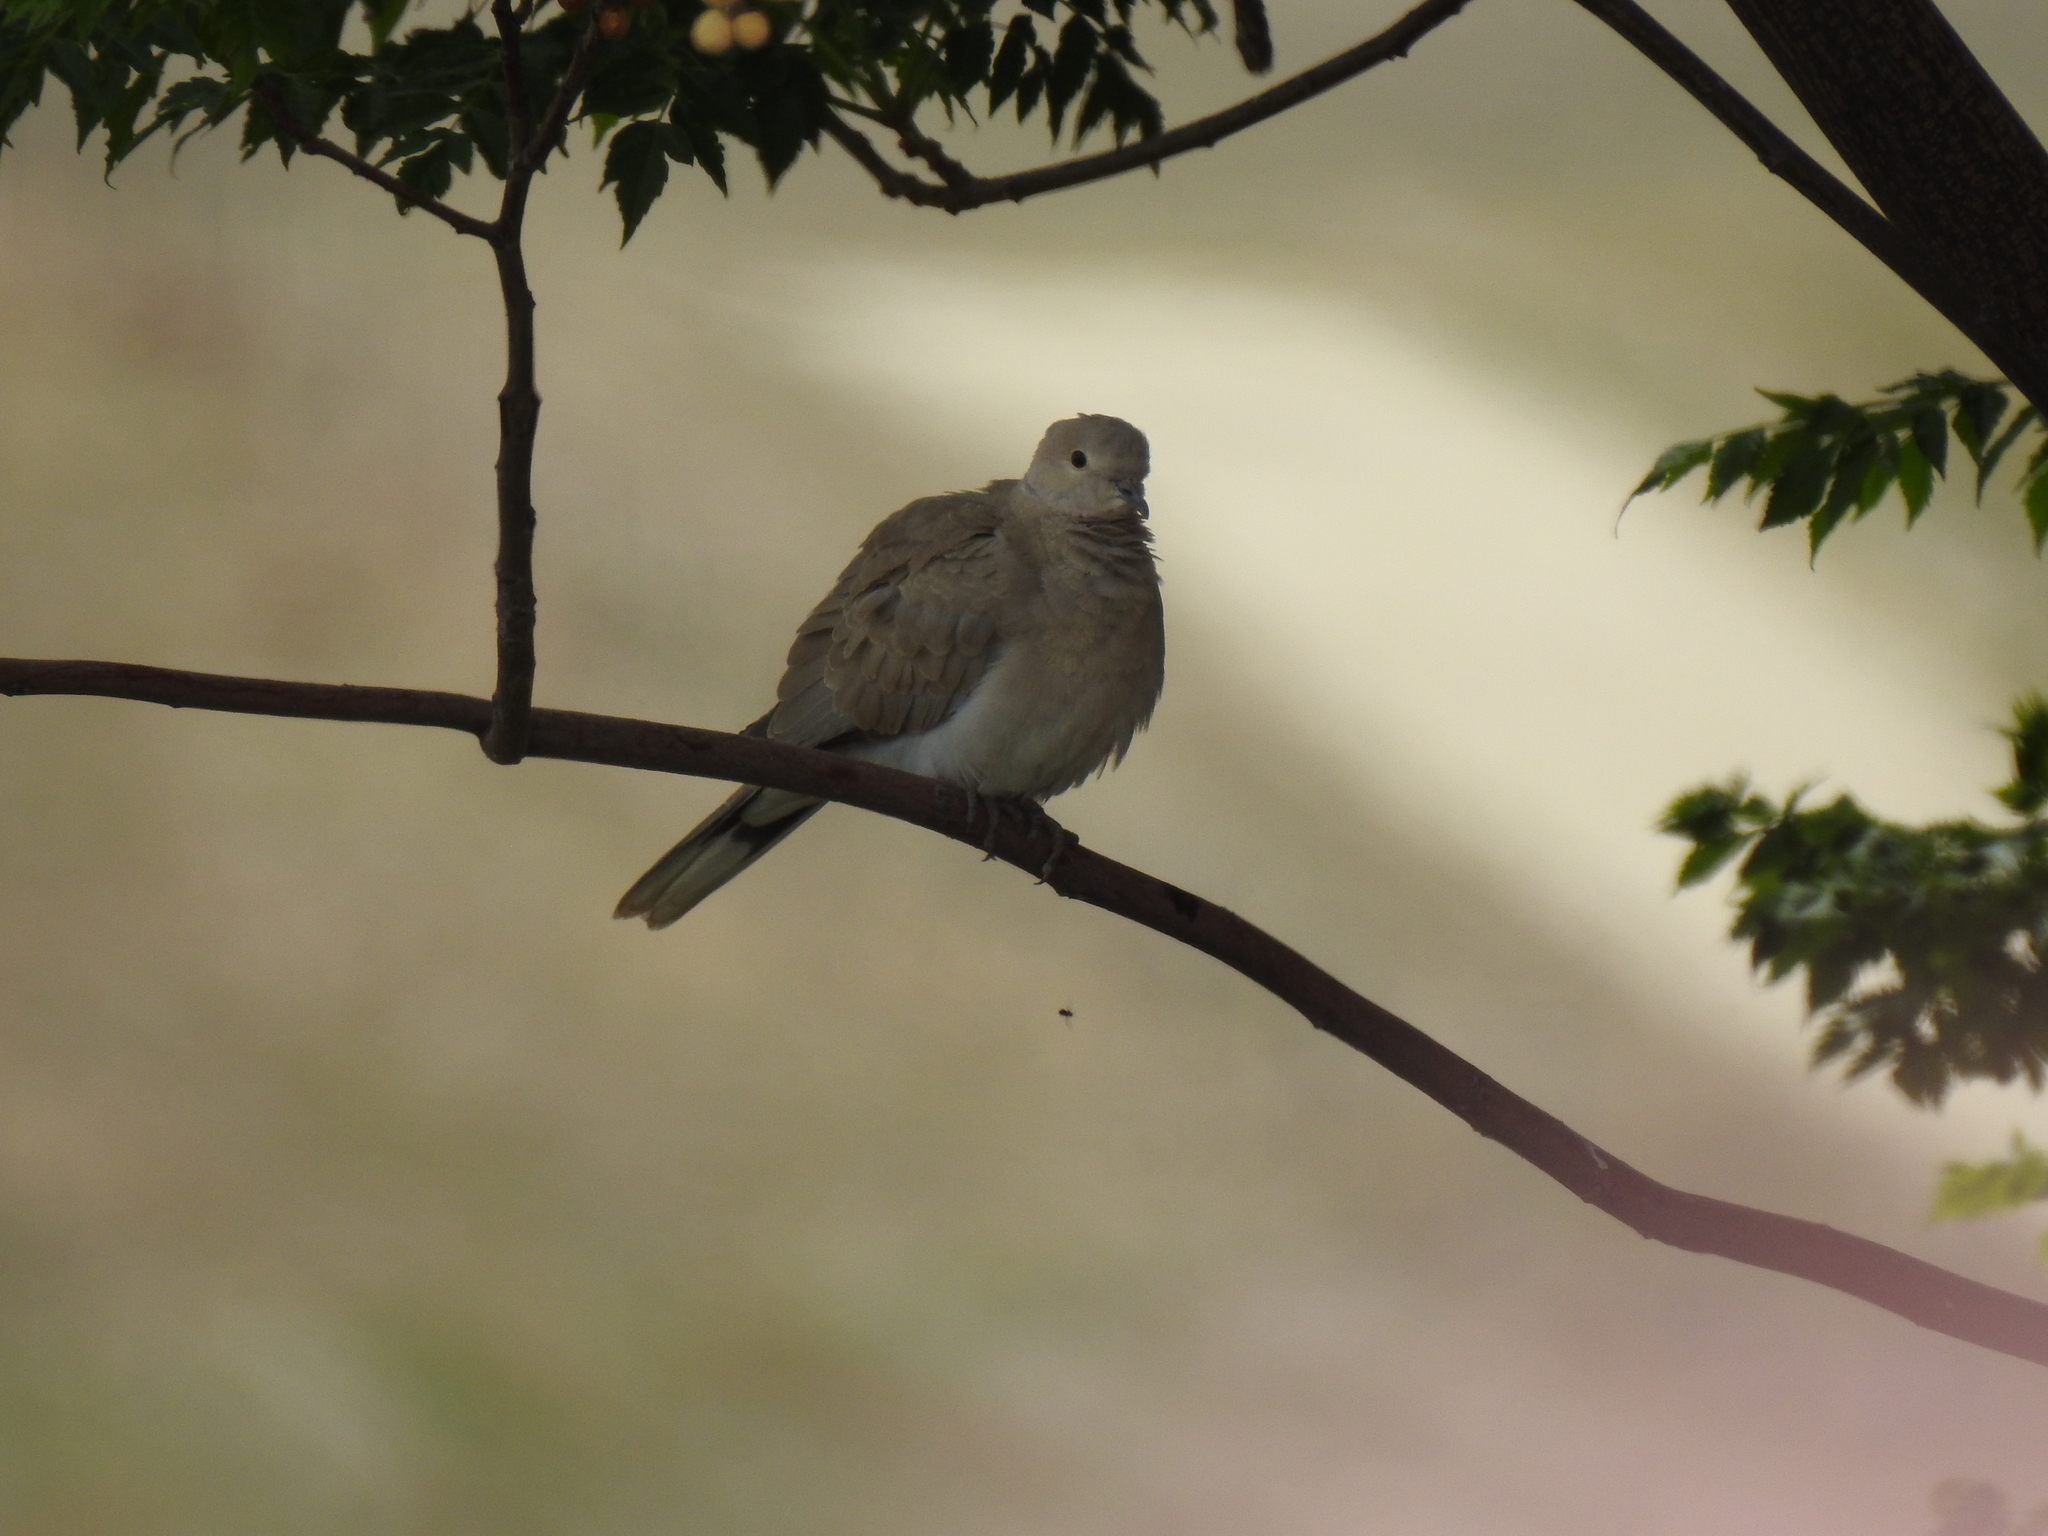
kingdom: Animalia
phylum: Chordata
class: Aves
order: Columbiformes
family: Columbidae
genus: Streptopelia
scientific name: Streptopelia decaocto
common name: Eurasian collared dove
